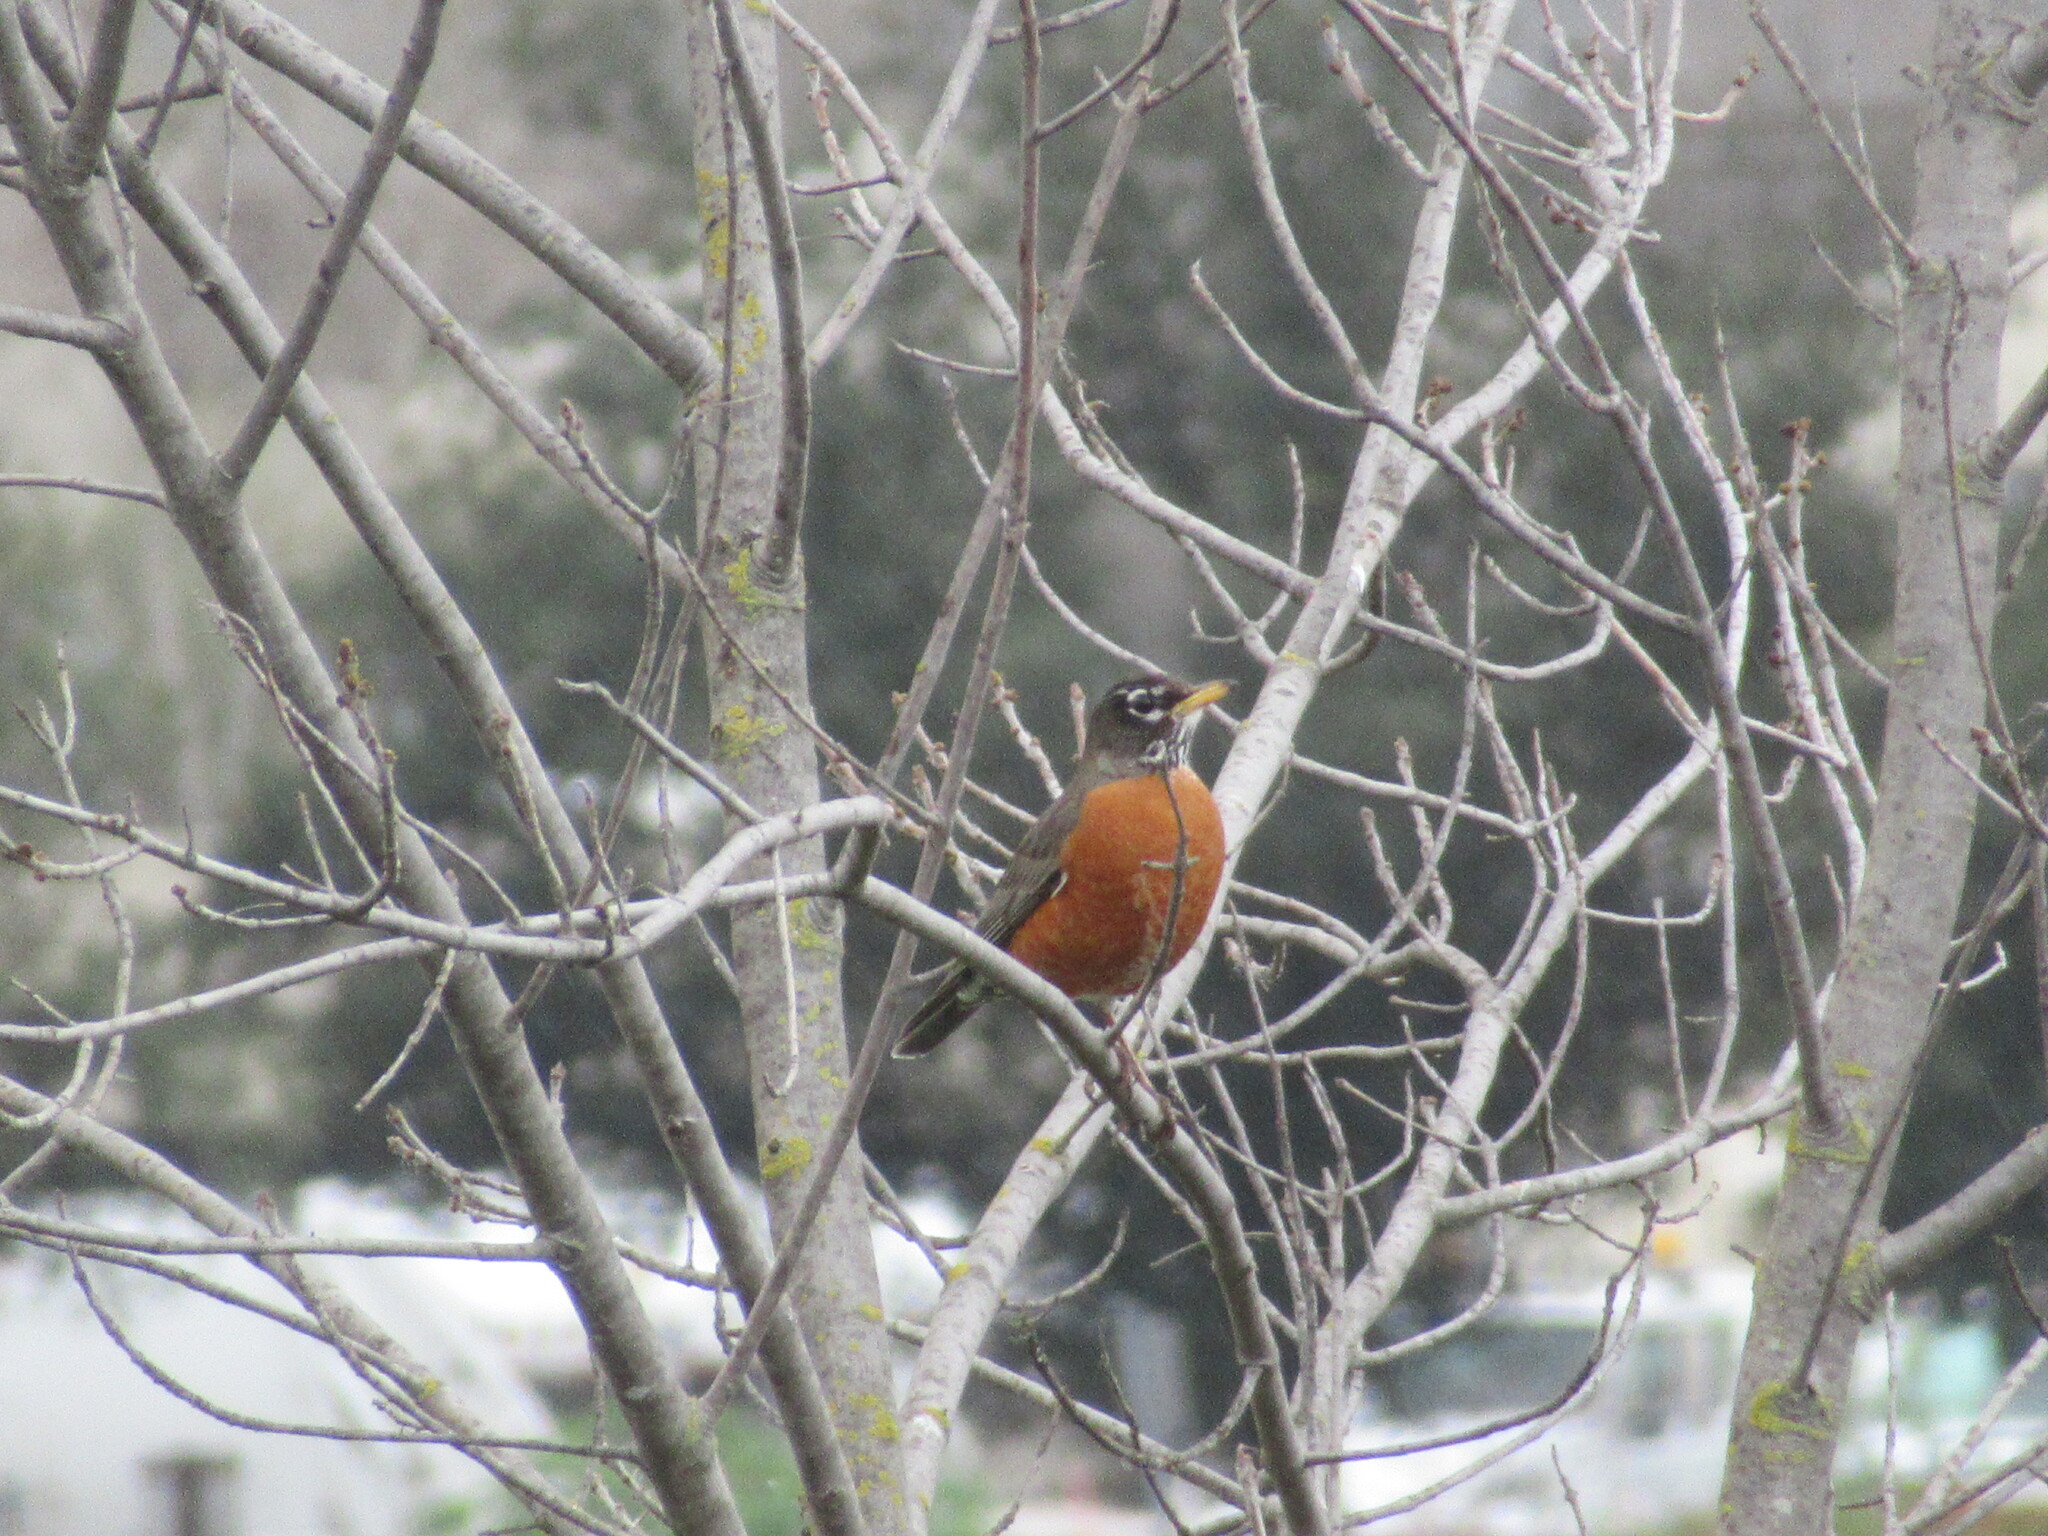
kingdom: Animalia
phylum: Chordata
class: Aves
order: Passeriformes
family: Turdidae
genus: Turdus
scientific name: Turdus migratorius
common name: American robin
